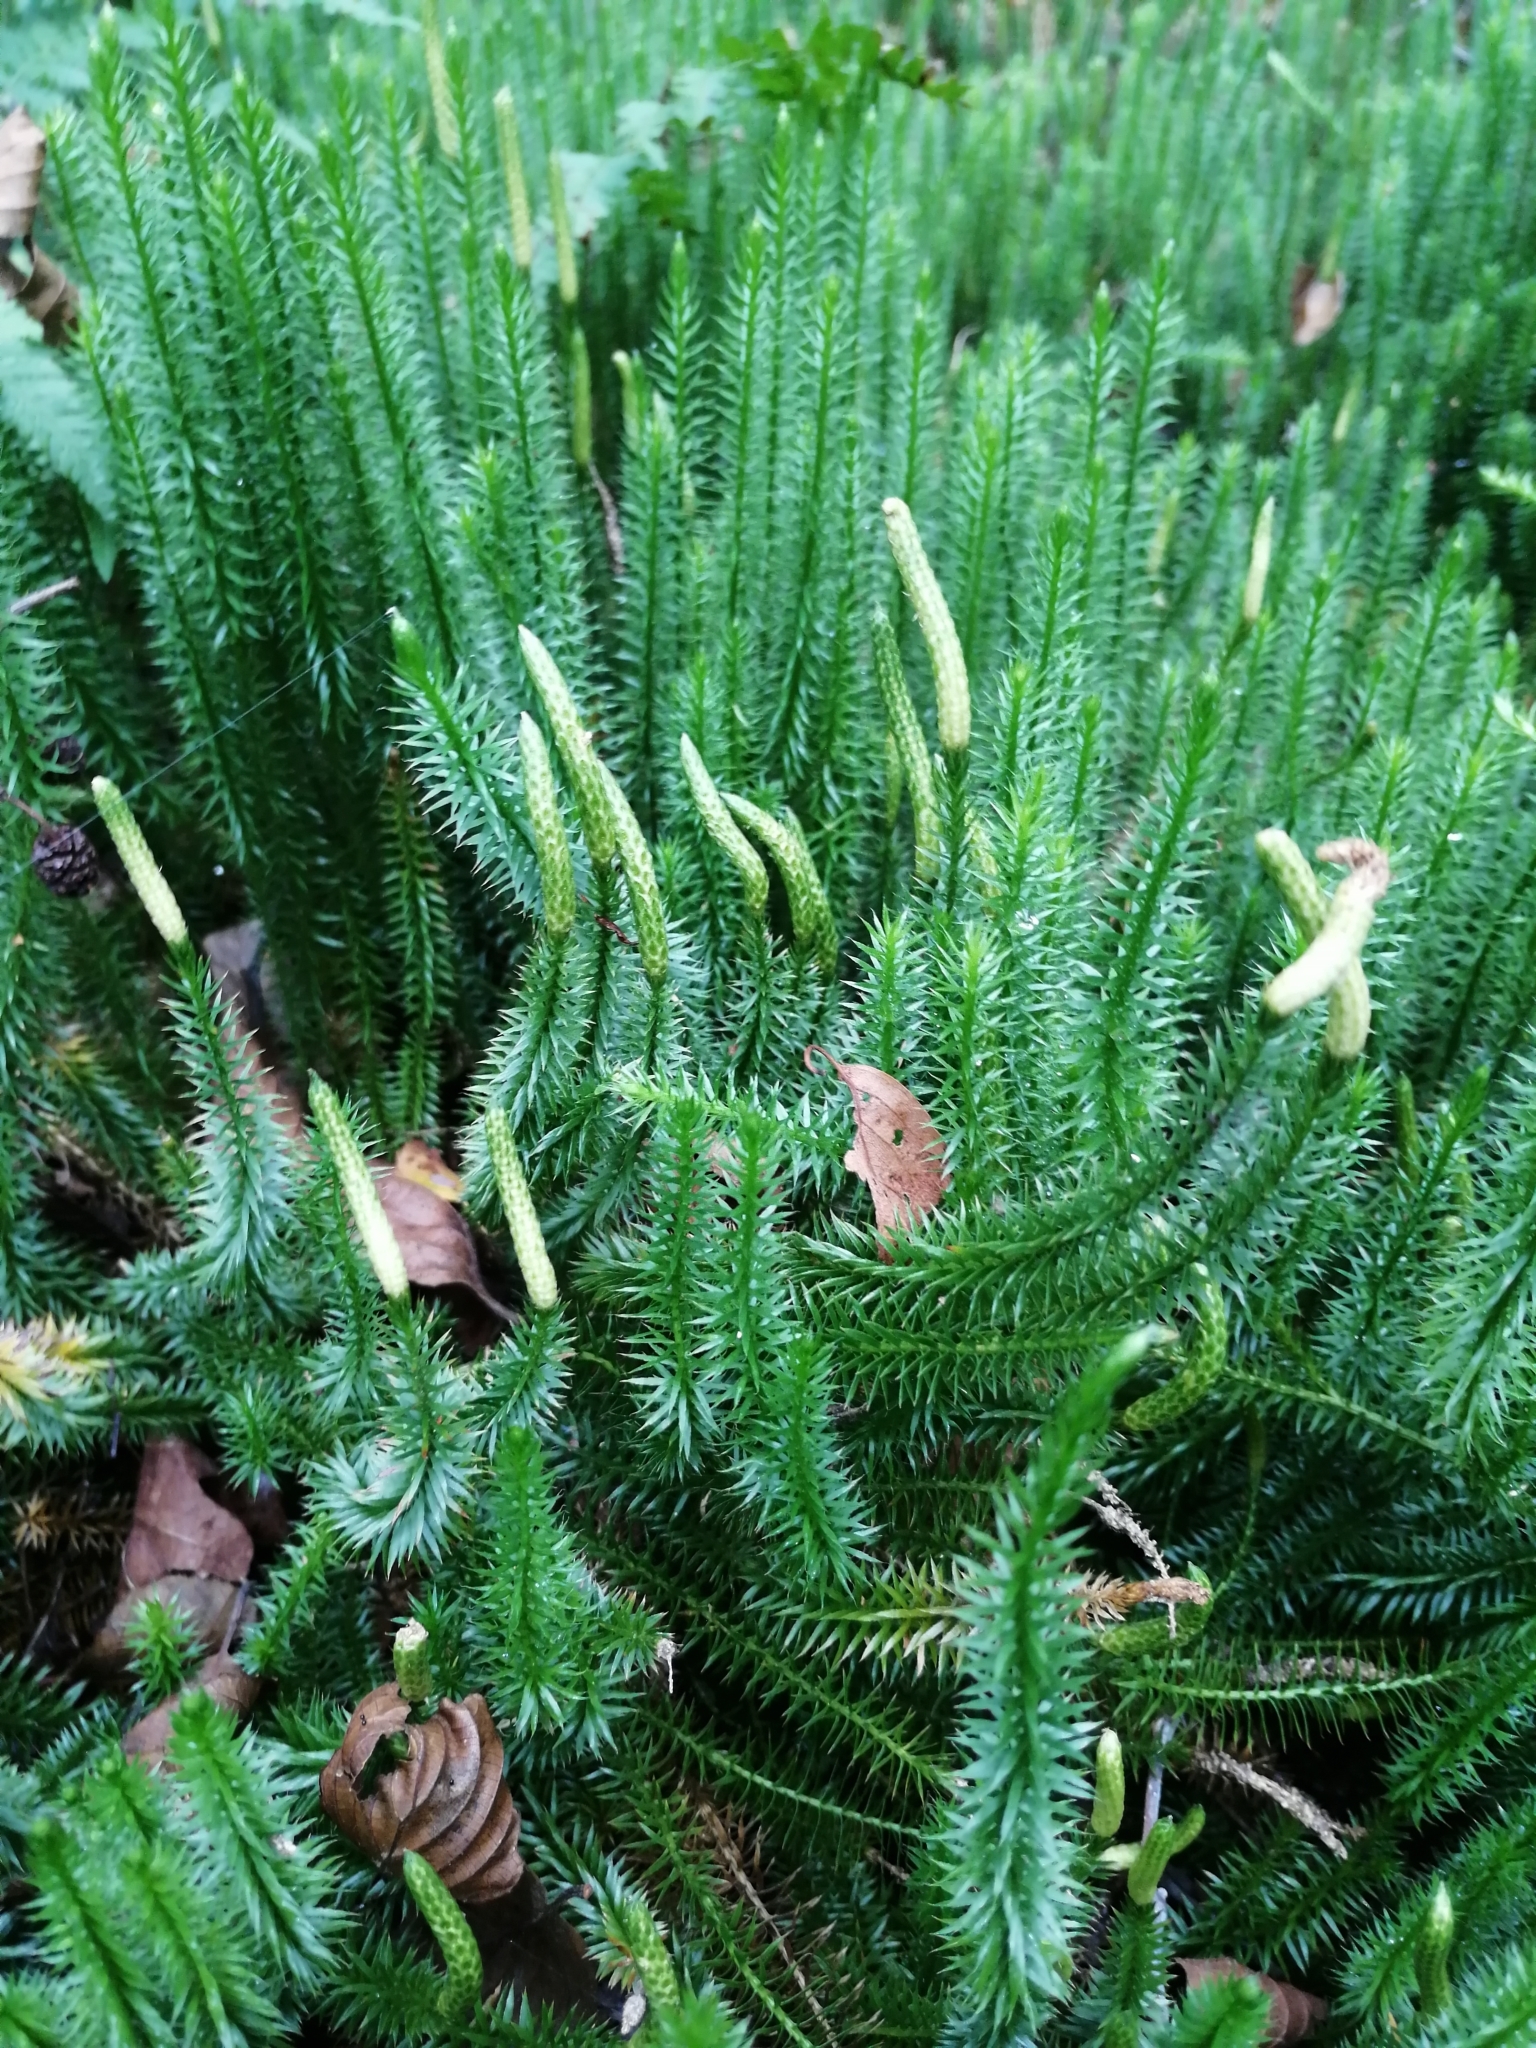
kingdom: Plantae
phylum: Tracheophyta
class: Lycopodiopsida
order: Lycopodiales
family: Lycopodiaceae
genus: Spinulum
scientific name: Spinulum annotinum
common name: Interrupted club-moss
